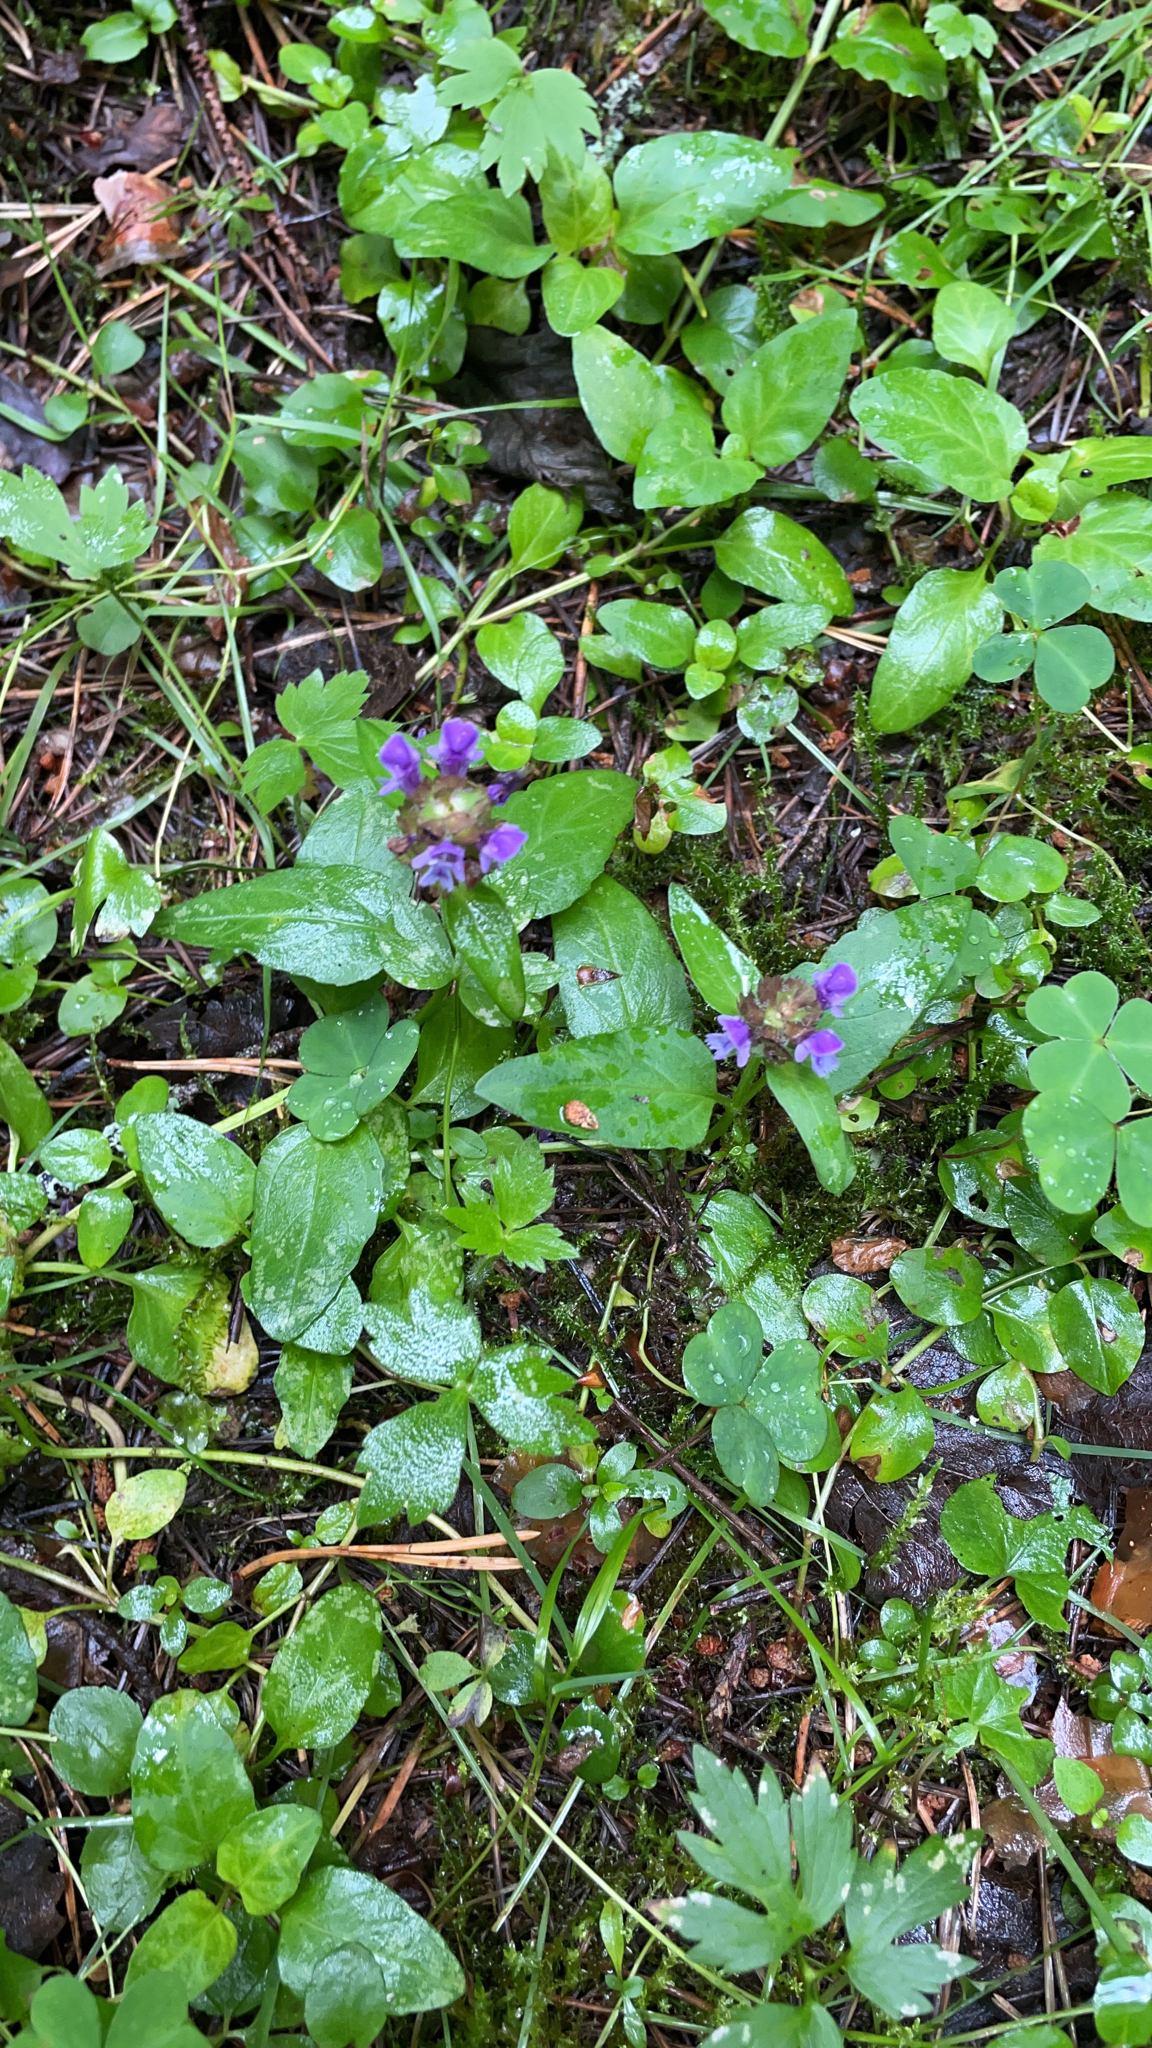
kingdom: Plantae
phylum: Tracheophyta
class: Magnoliopsida
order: Lamiales
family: Lamiaceae
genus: Prunella
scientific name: Prunella vulgaris
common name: Heal-all
